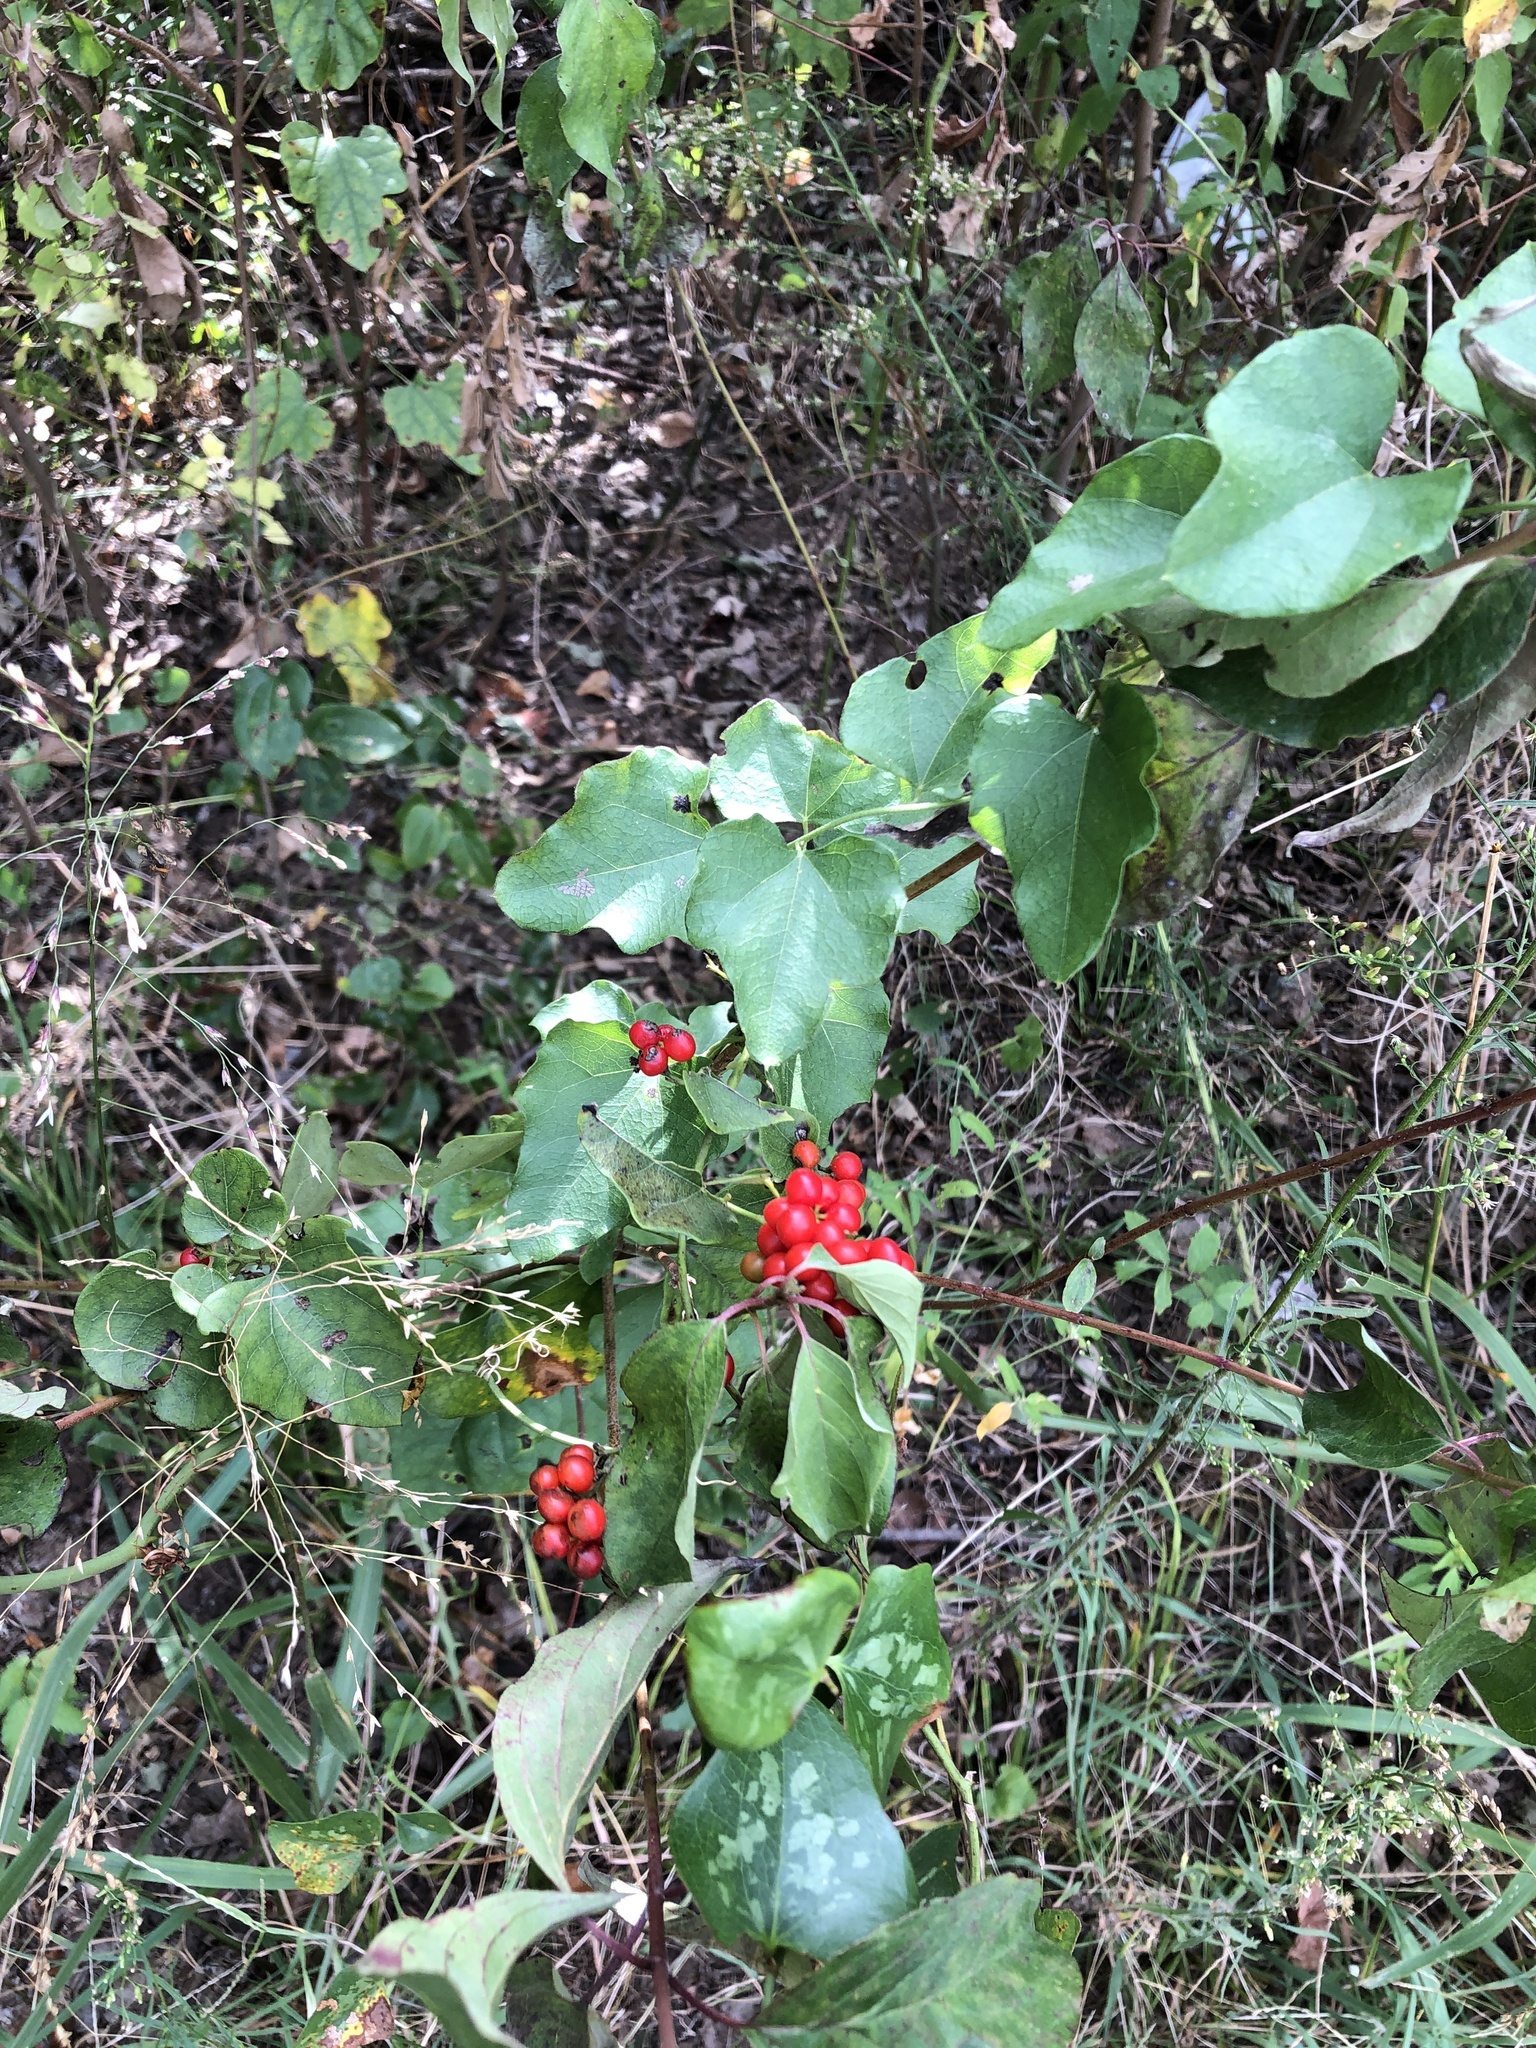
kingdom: Plantae
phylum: Tracheophyta
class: Magnoliopsida
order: Ranunculales
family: Menispermaceae
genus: Cocculus
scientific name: Cocculus carolinus
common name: Carolina moonseed
